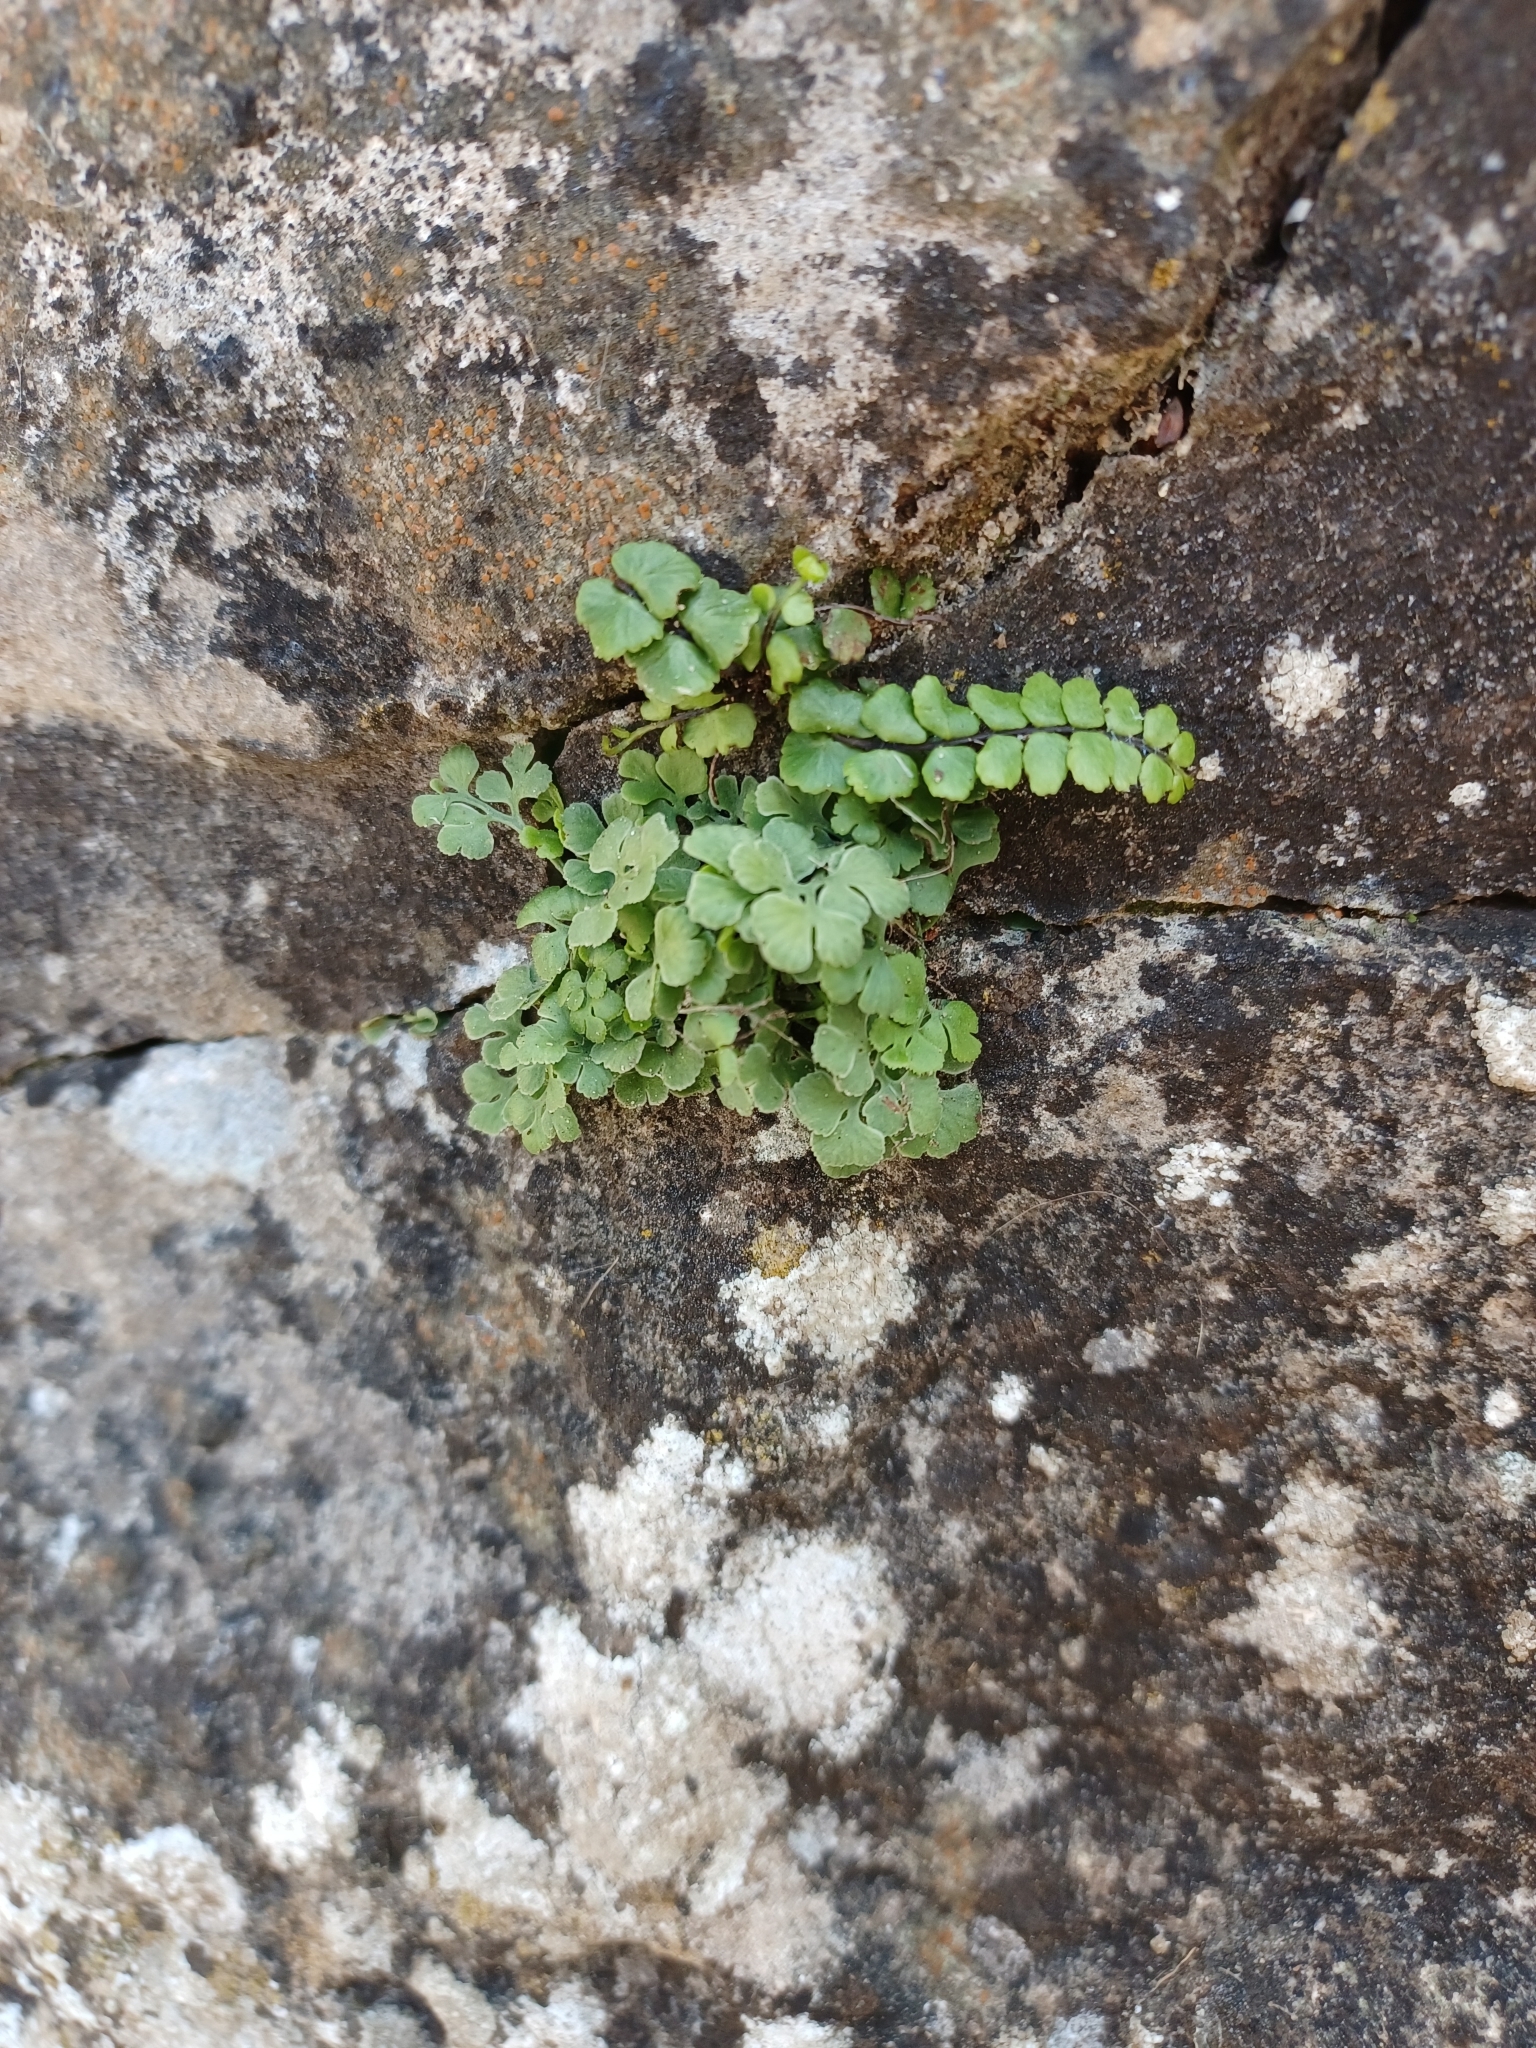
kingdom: Plantae
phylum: Tracheophyta
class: Polypodiopsida
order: Polypodiales
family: Aspleniaceae
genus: Asplenium
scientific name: Asplenium trichomanes
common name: Maidenhair spleenwort
